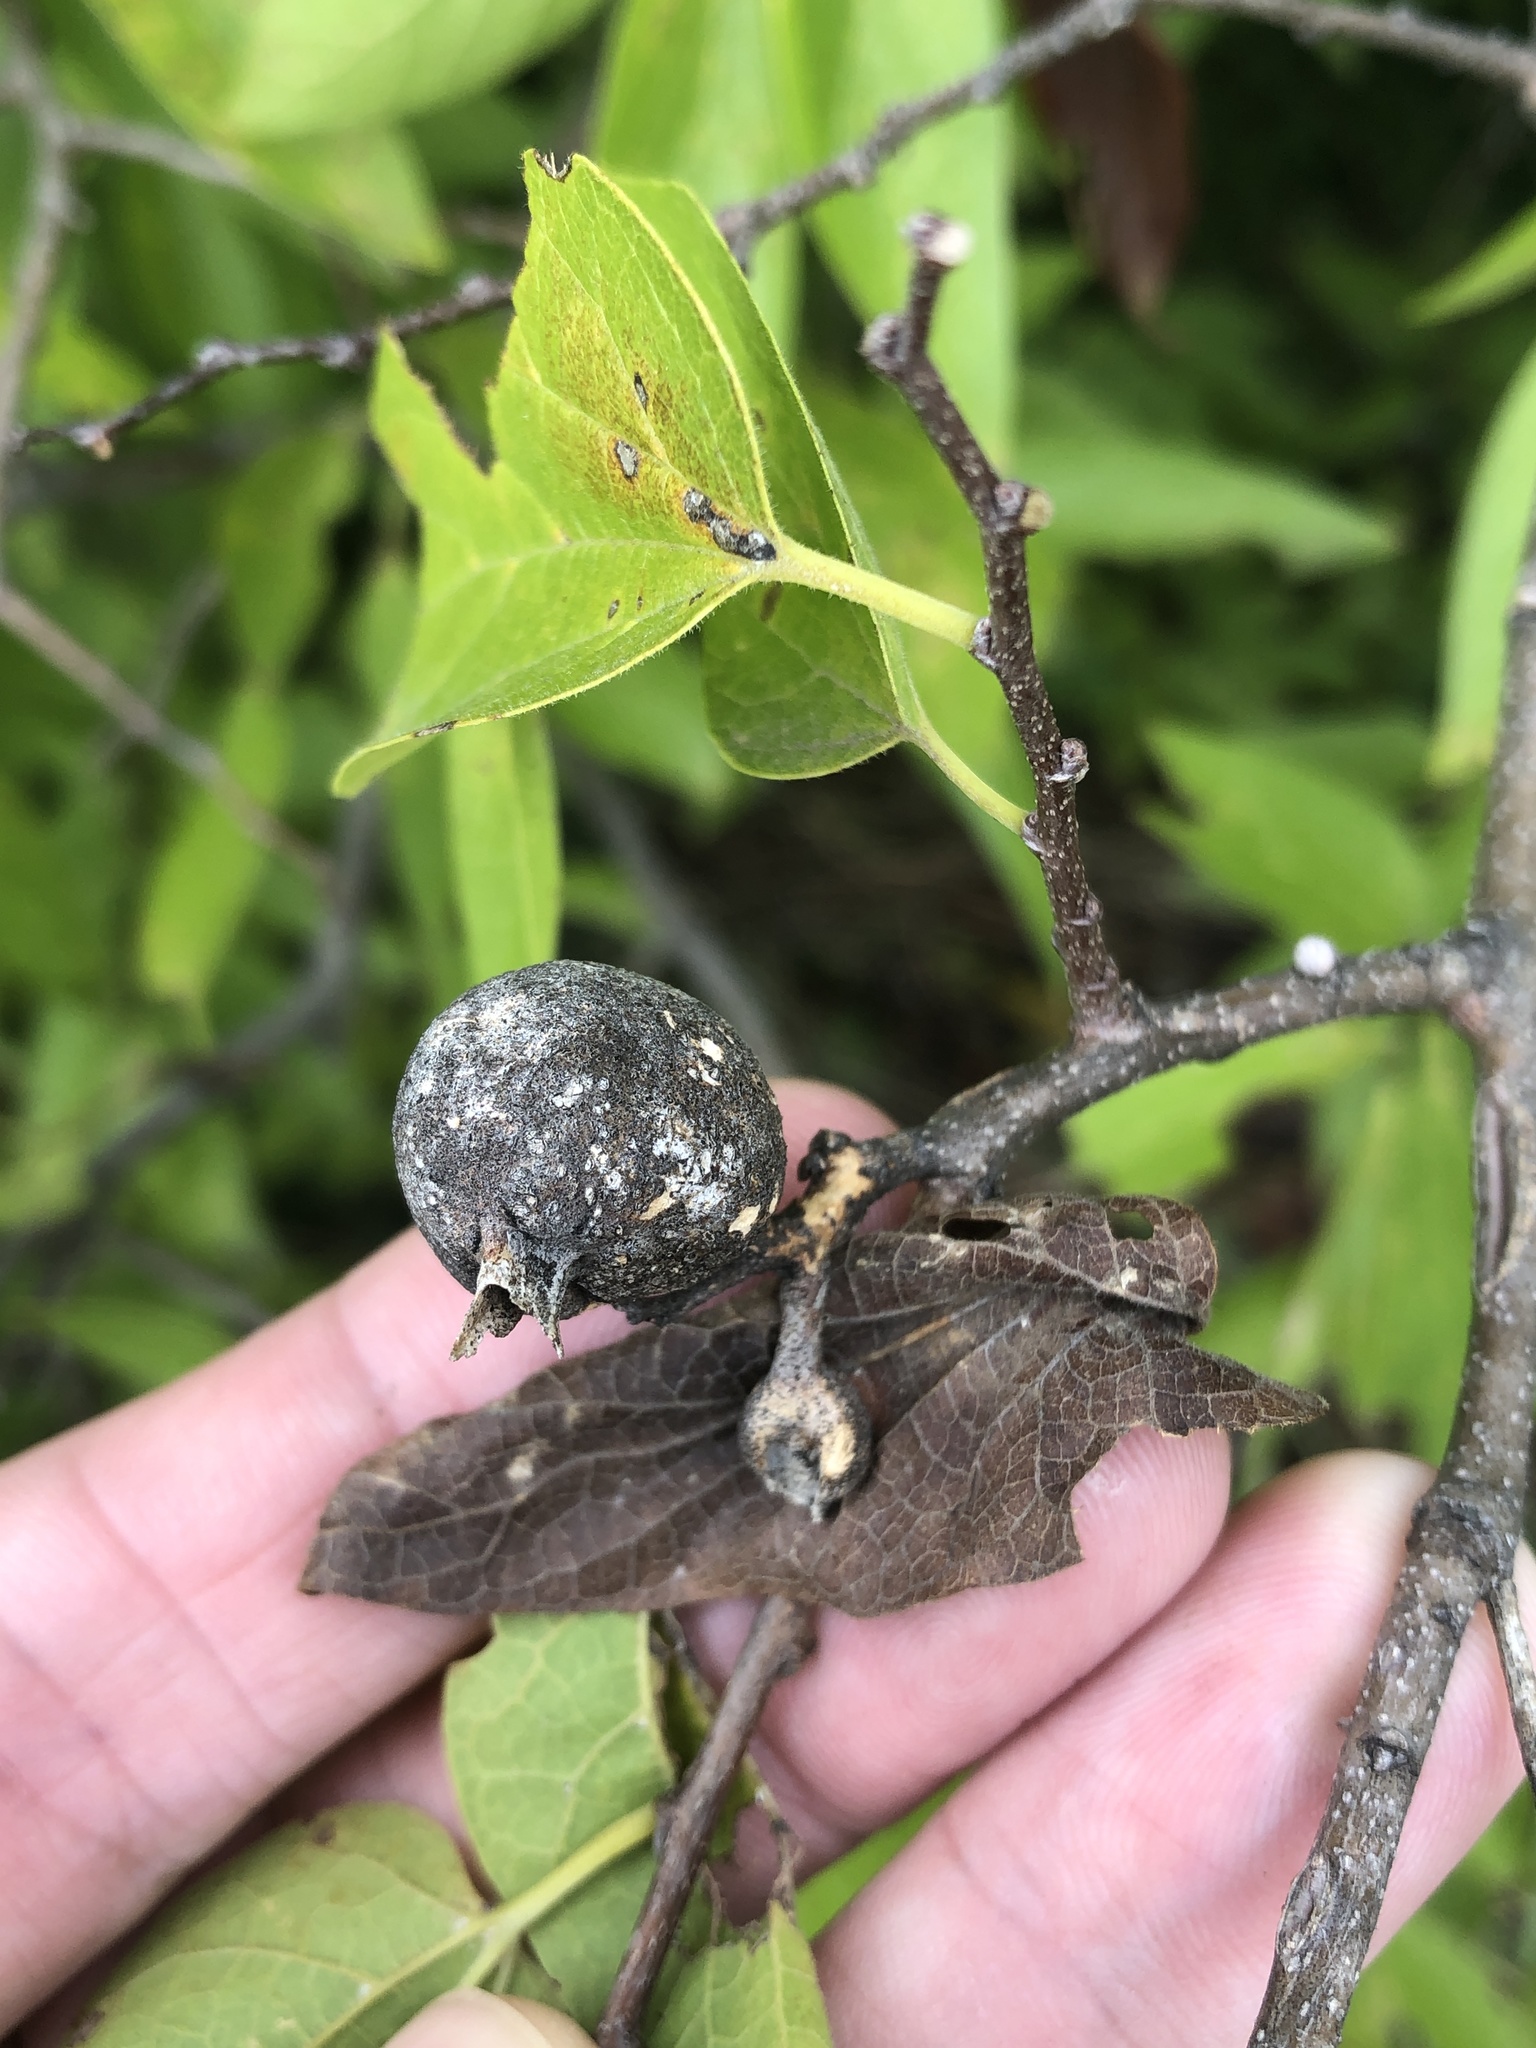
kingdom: Animalia
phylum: Arthropoda
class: Insecta
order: Hemiptera
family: Aphalaridae
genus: Pachypsylla
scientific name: Pachypsylla venusta
